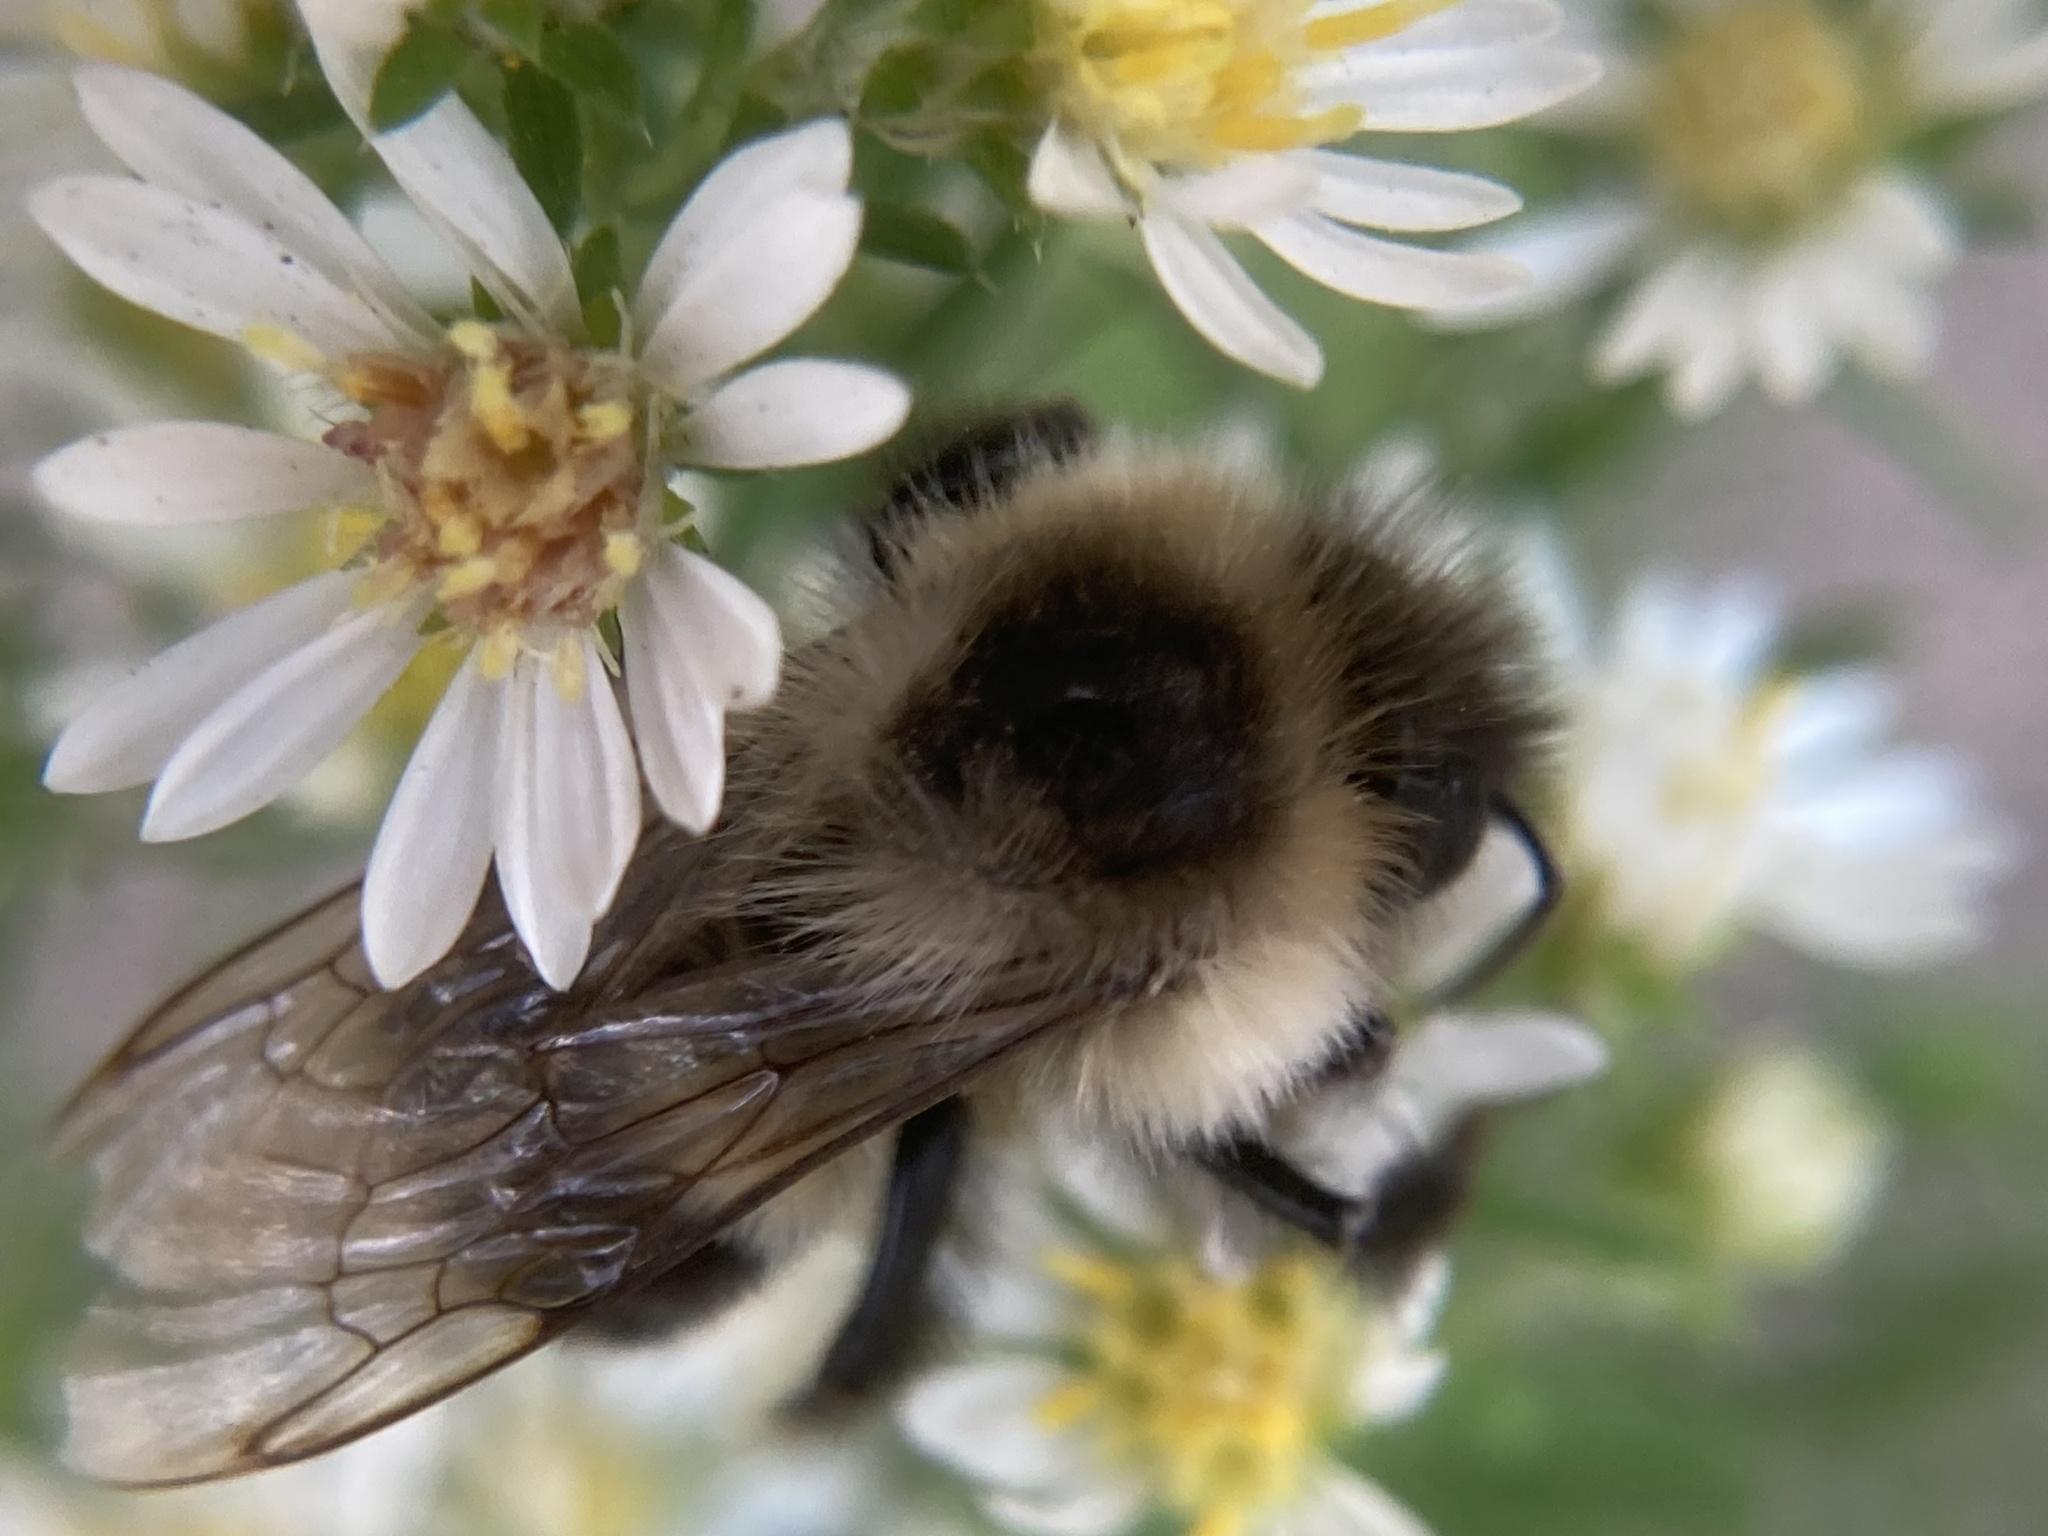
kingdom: Animalia
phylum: Arthropoda
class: Insecta
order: Hymenoptera
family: Apidae
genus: Bombus
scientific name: Bombus impatiens
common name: Common eastern bumble bee
